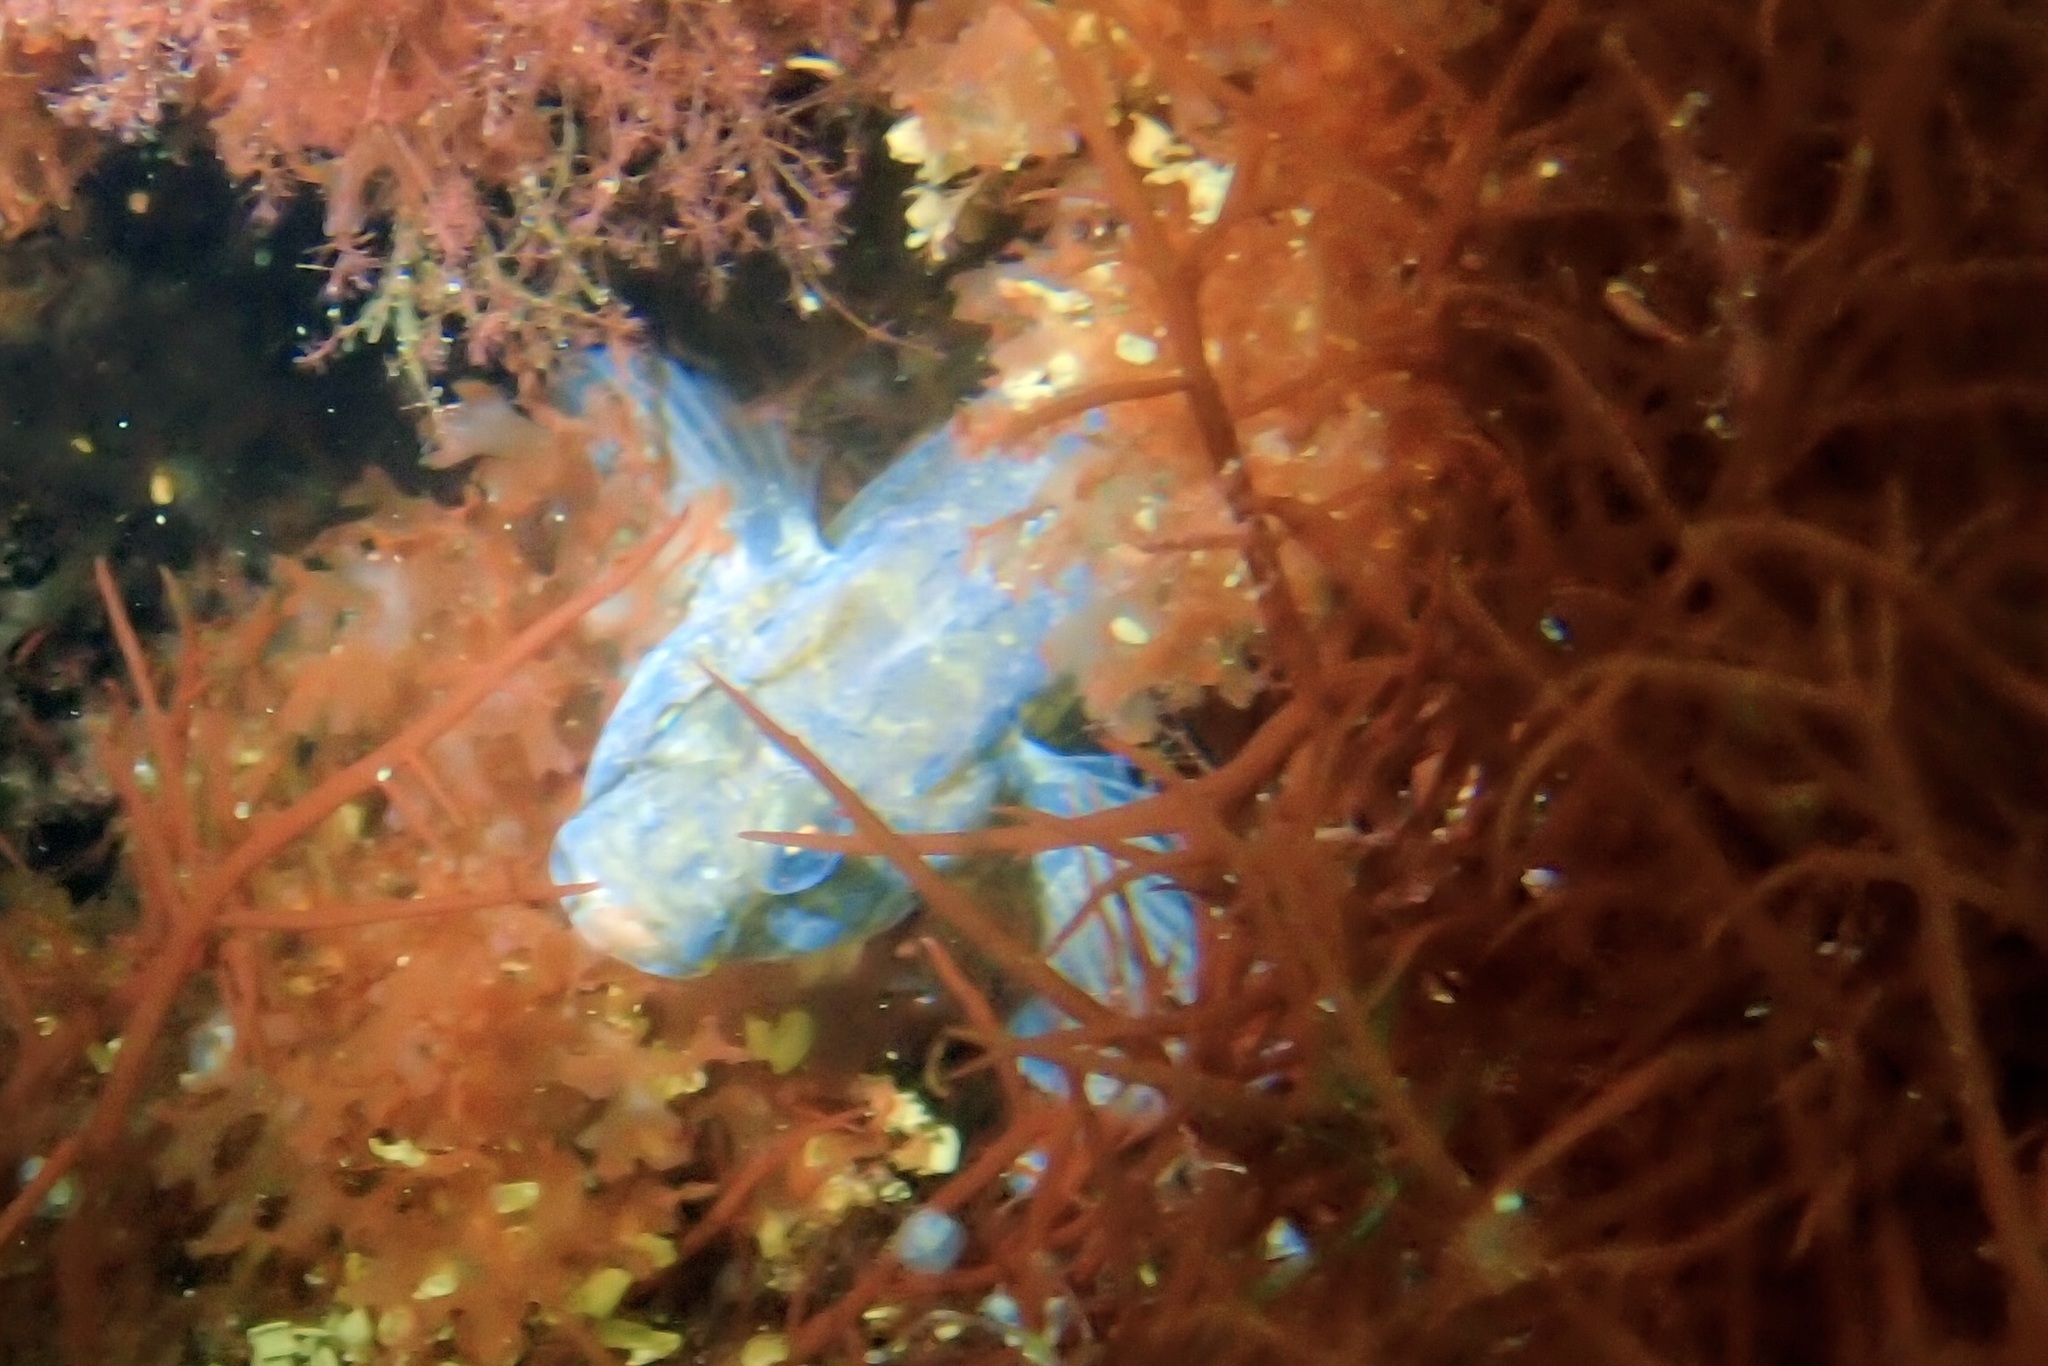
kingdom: Animalia
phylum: Chordata
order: Perciformes
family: Gobiidae
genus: Gobius
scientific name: Gobius niger
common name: Black goby
